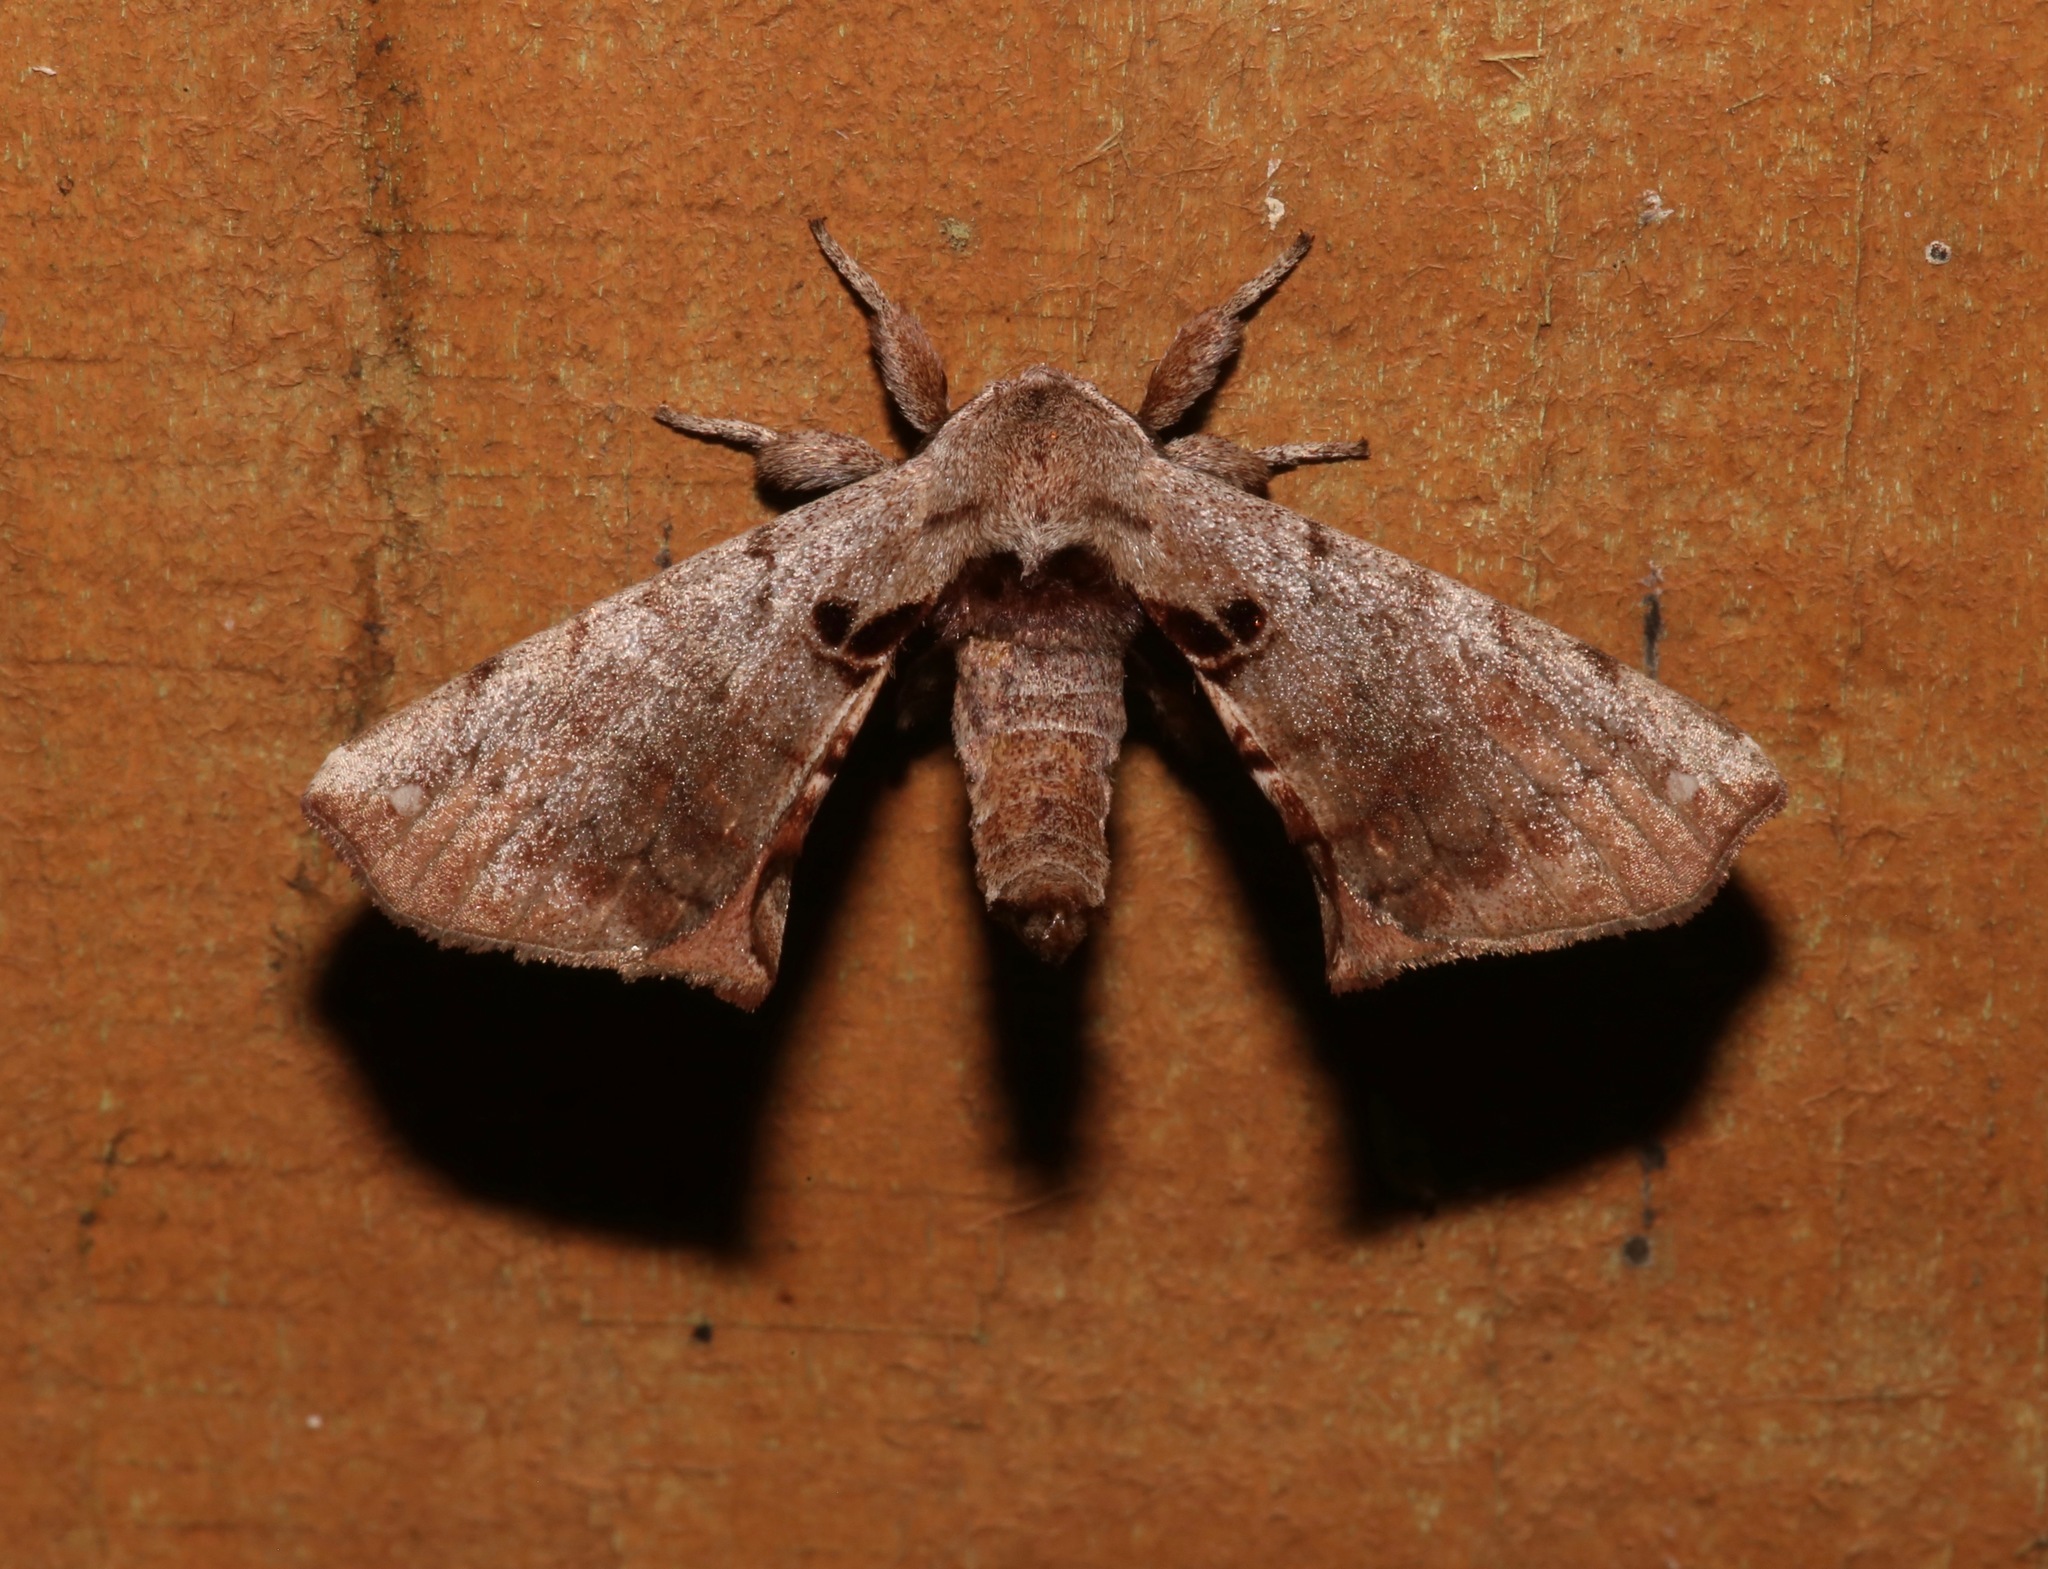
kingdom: Animalia
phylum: Arthropoda
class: Insecta
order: Lepidoptera
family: Apatelodidae
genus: Hygrochroa
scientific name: Hygrochroa Apatelodes torrefacta
